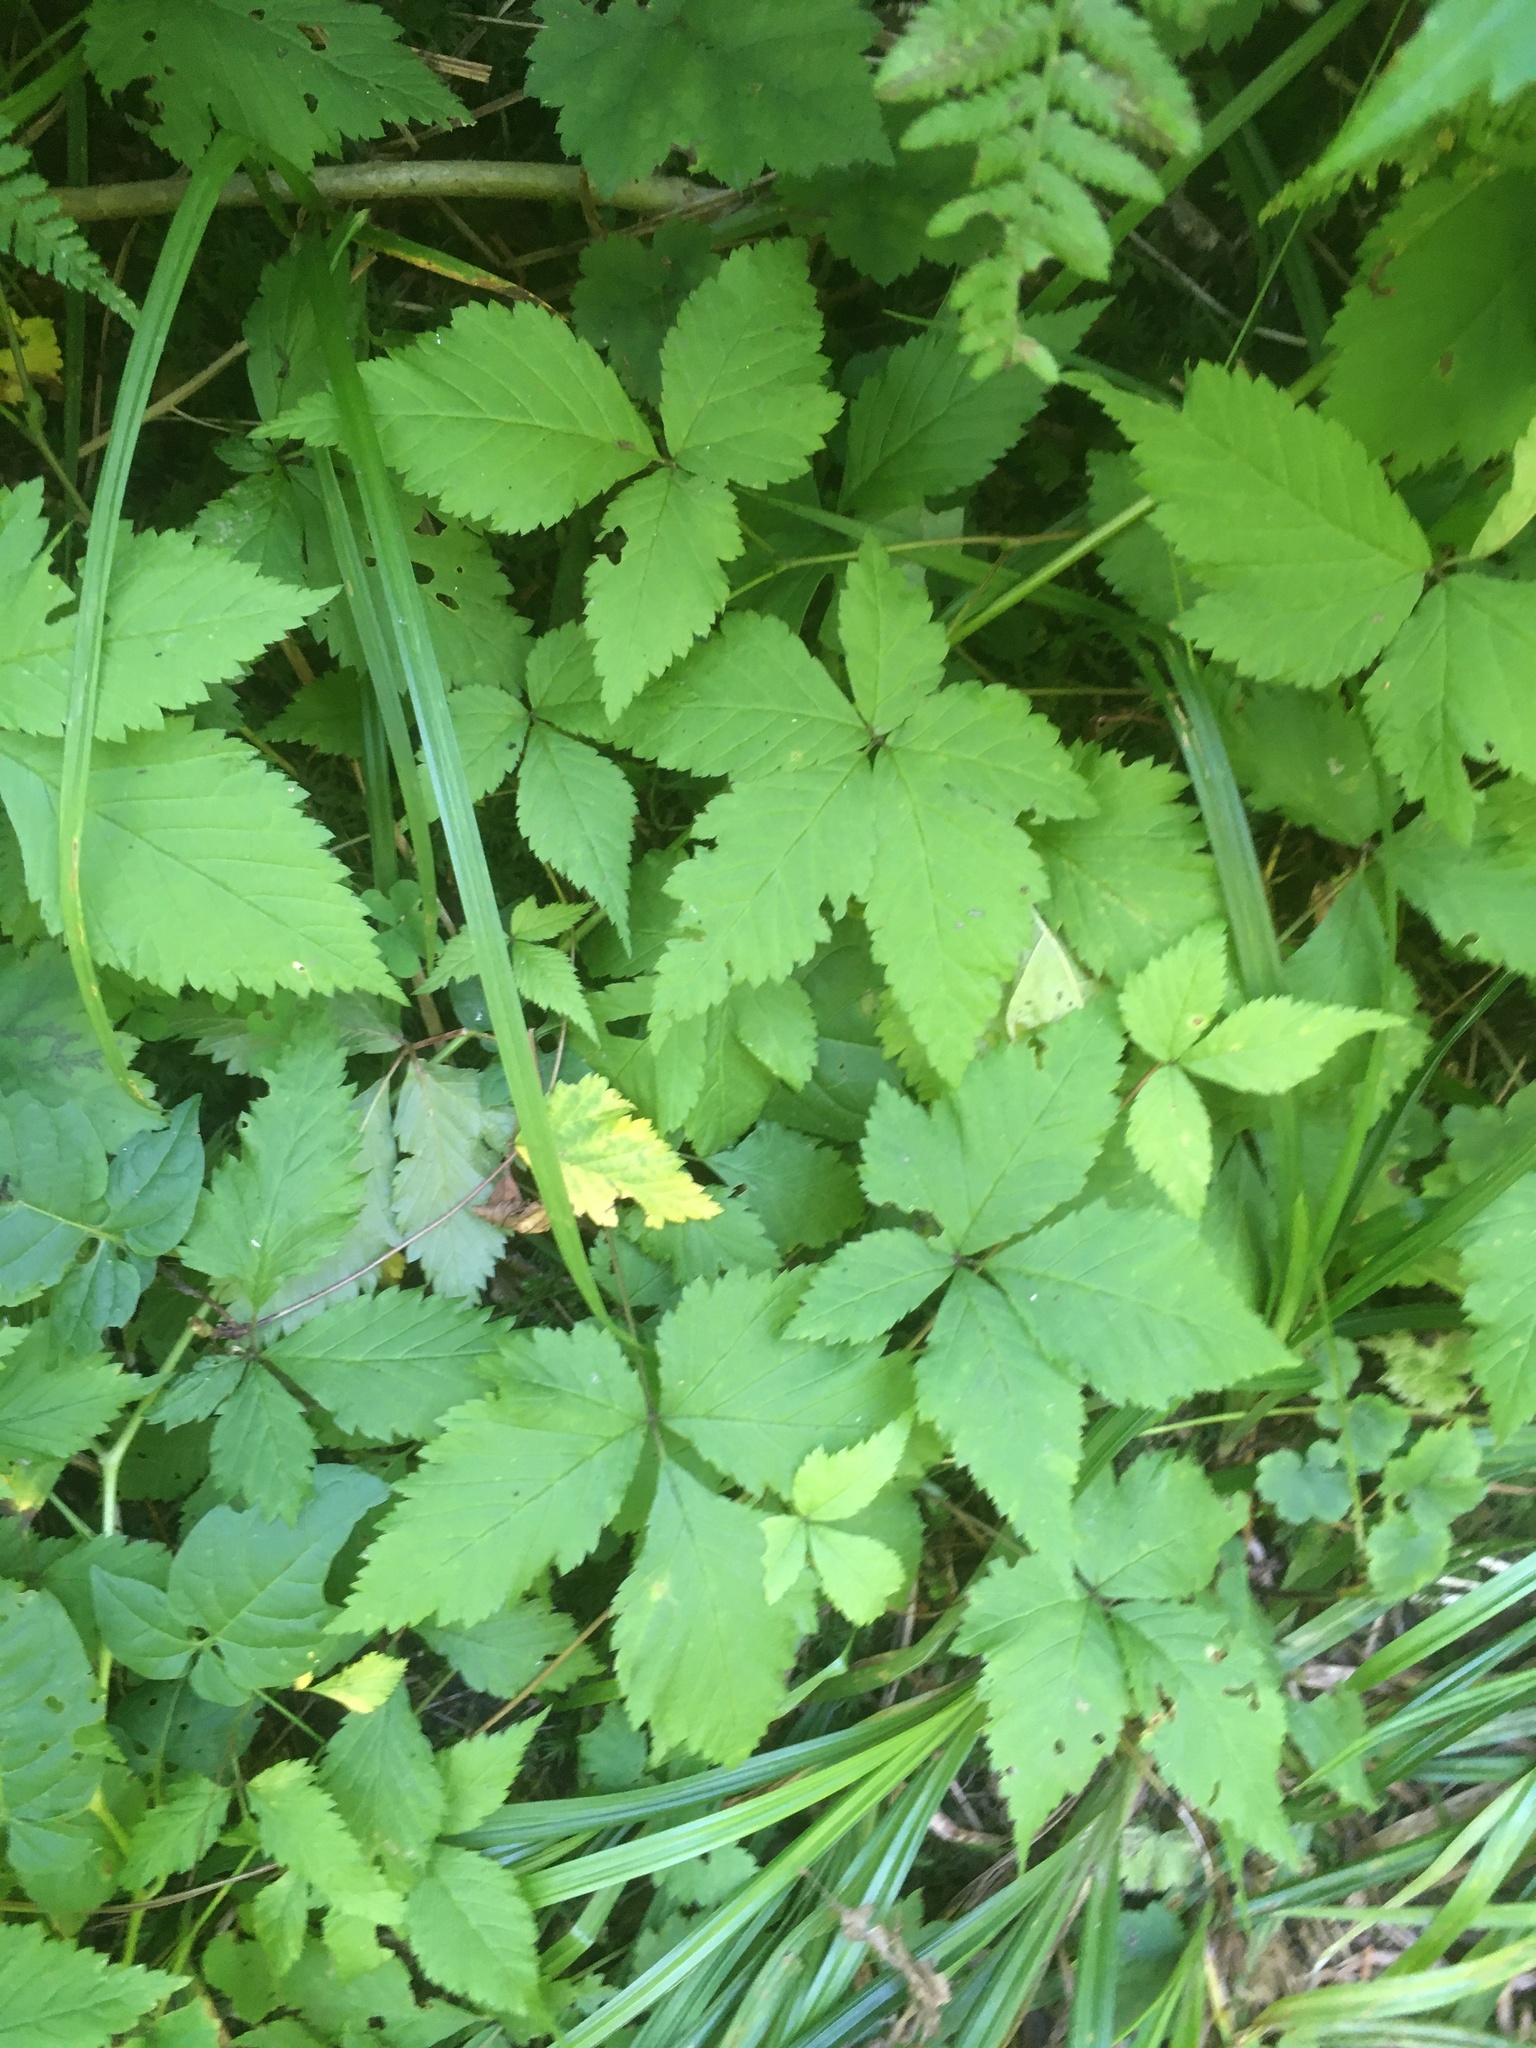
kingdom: Plantae
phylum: Tracheophyta
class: Magnoliopsida
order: Rosales
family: Rosaceae
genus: Rubus
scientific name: Rubus pubescens
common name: Dwarf raspberry
